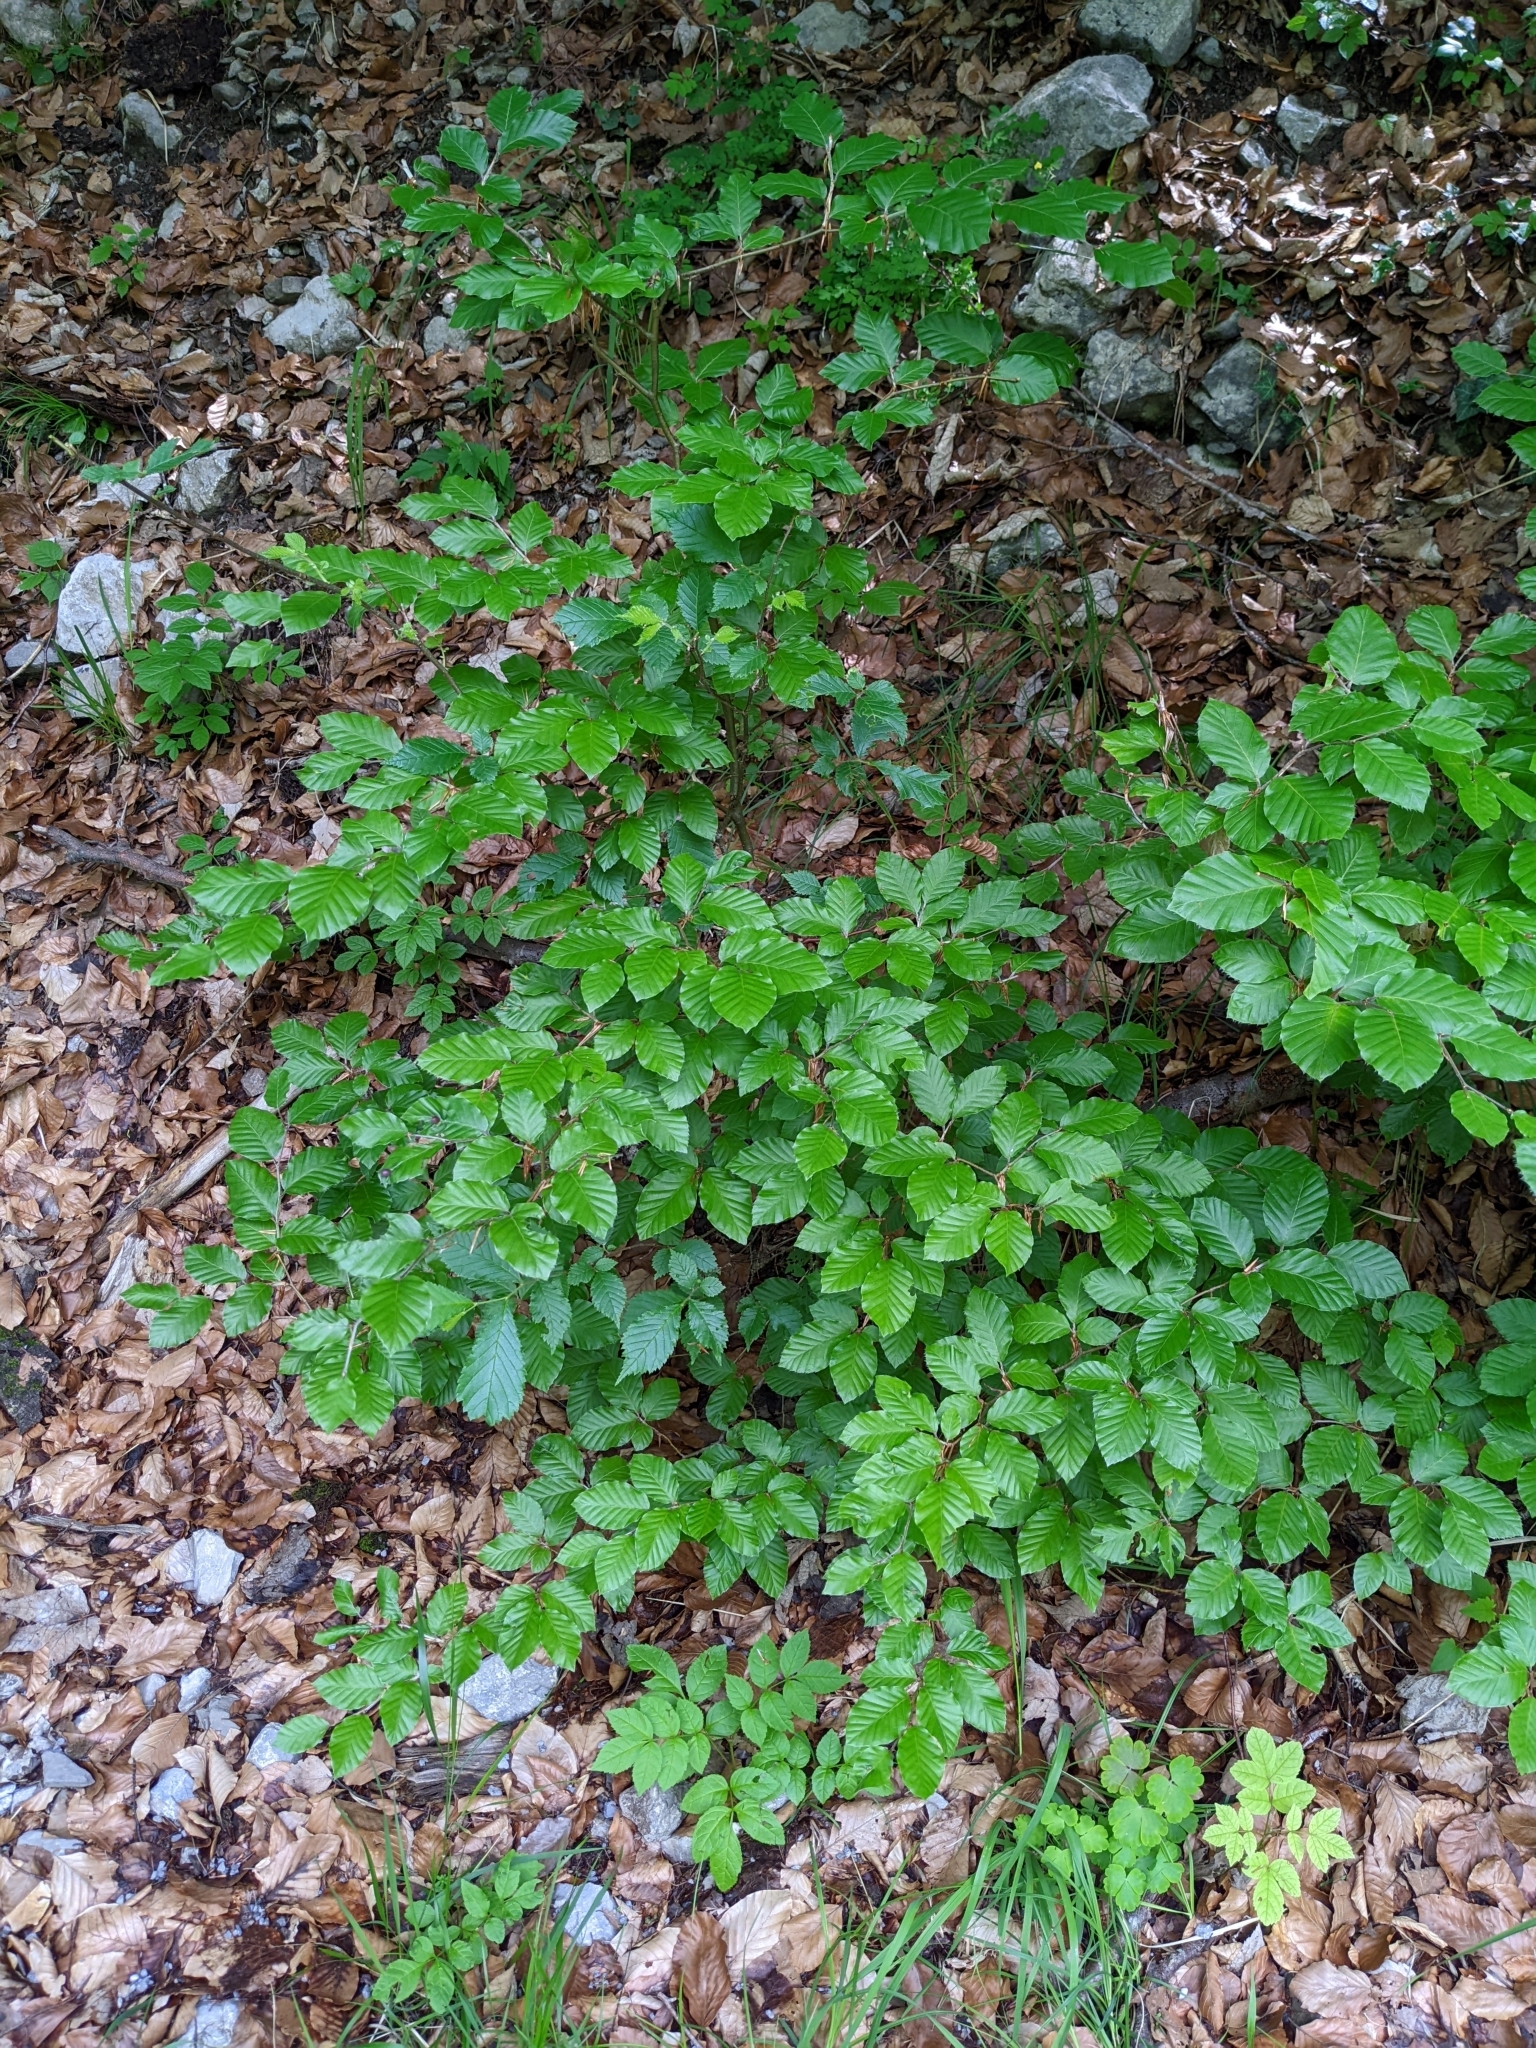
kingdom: Plantae
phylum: Tracheophyta
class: Magnoliopsida
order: Fagales
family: Fagaceae
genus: Fagus
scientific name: Fagus sylvatica
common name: Beech
